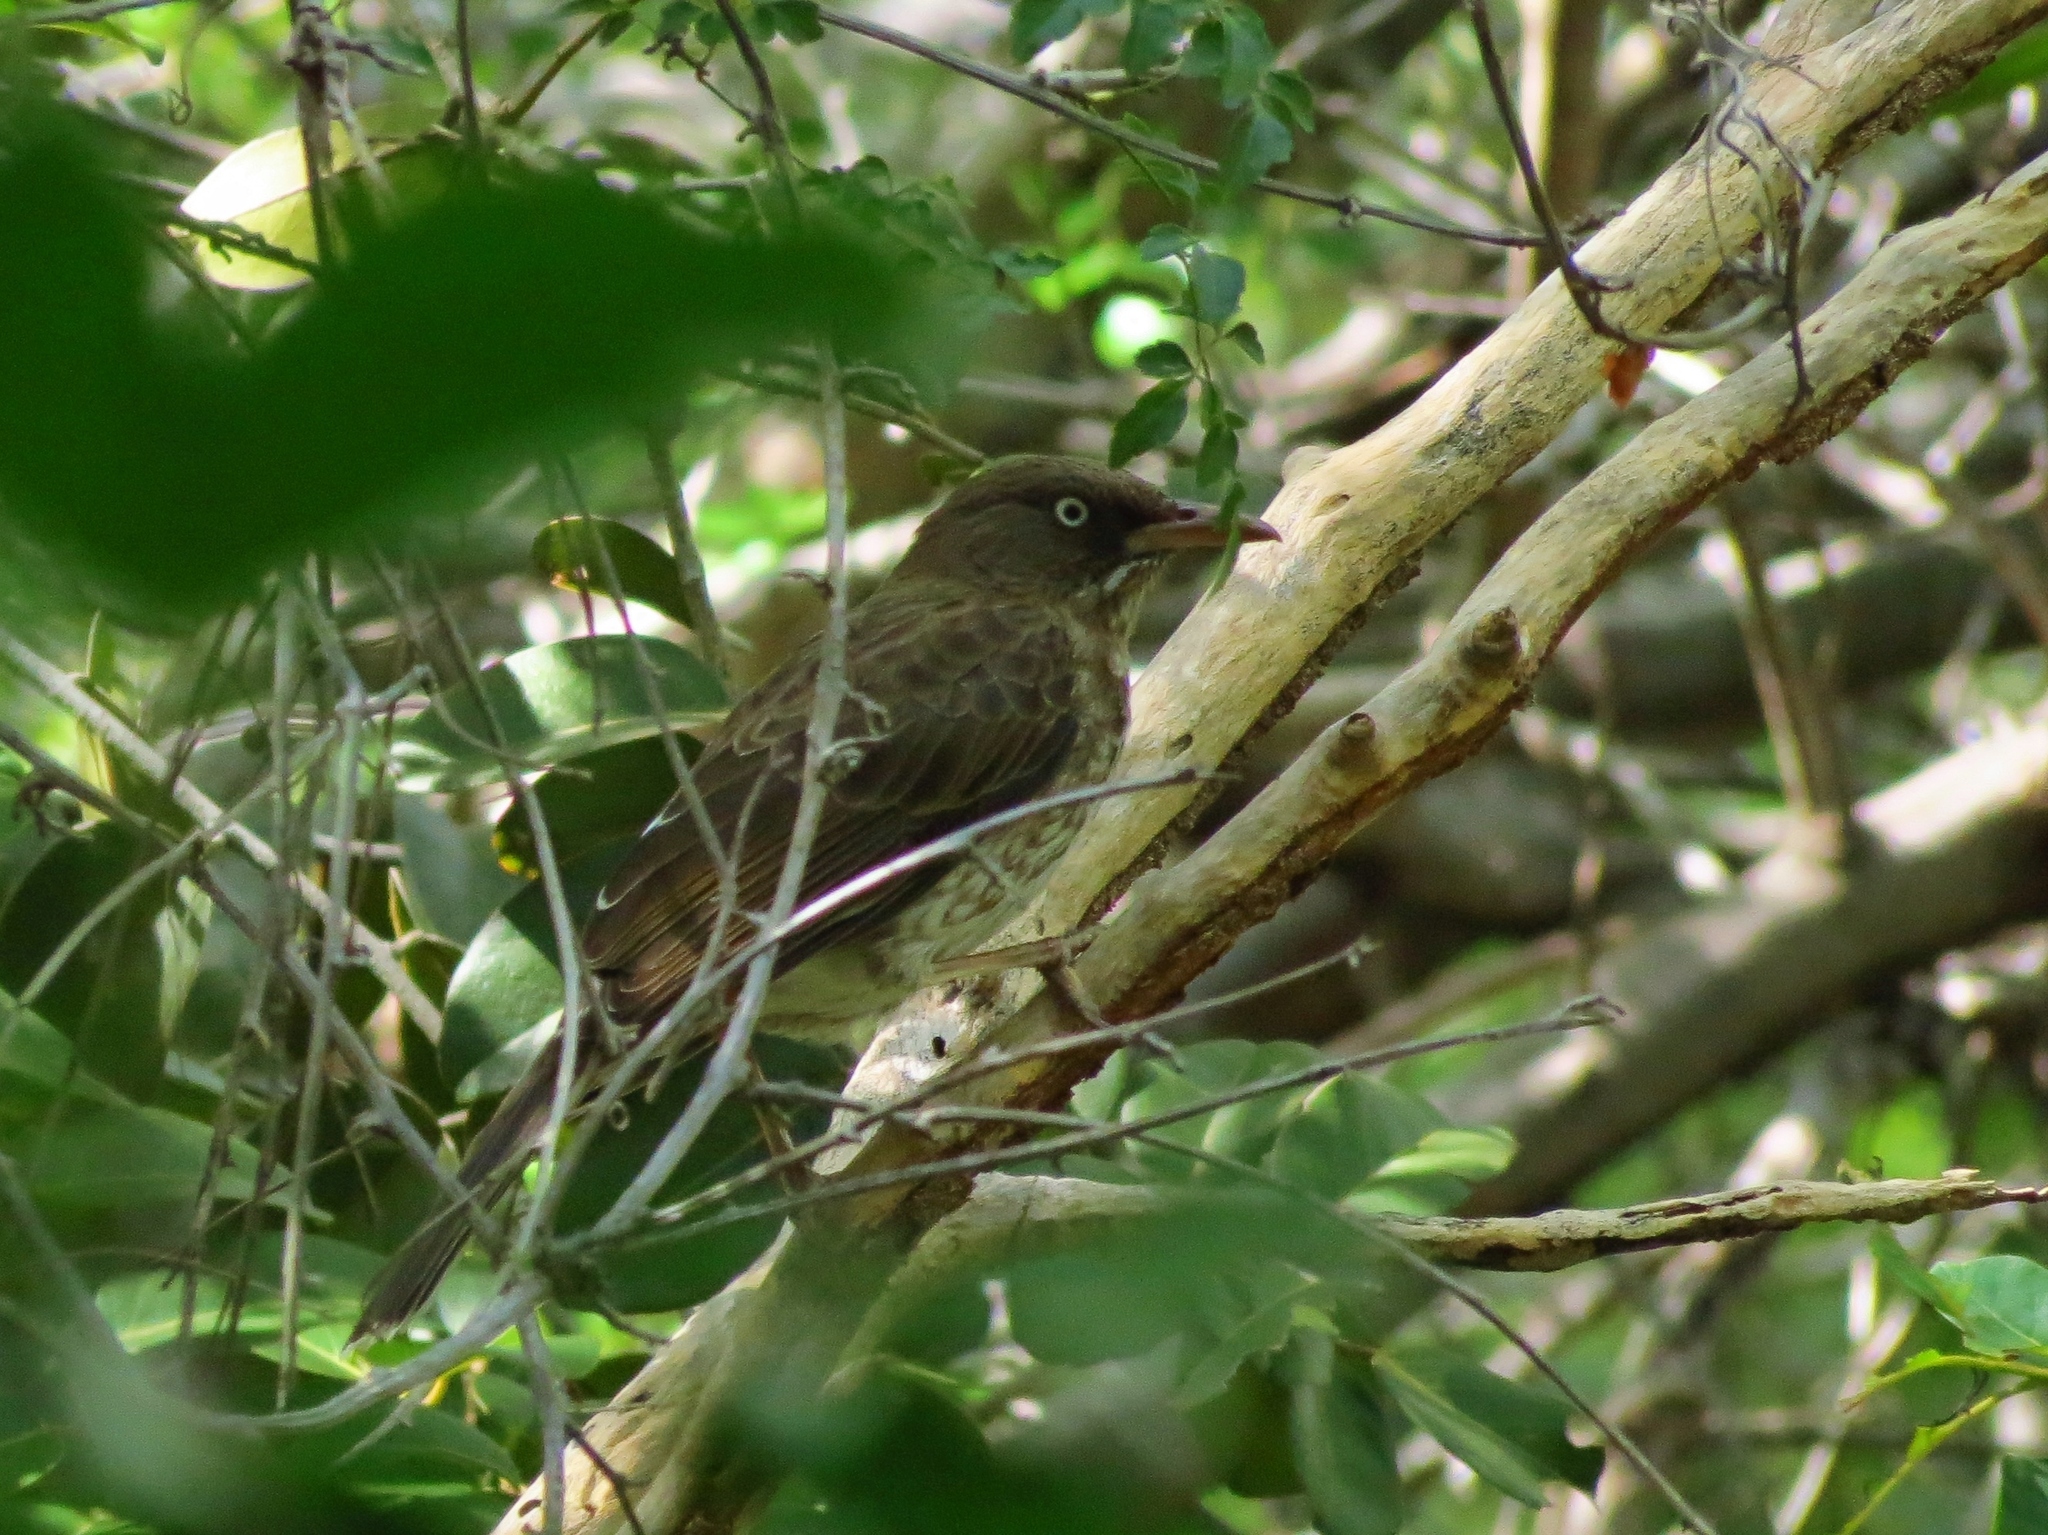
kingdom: Animalia
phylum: Chordata
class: Aves
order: Passeriformes
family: Mimidae
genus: Margarops
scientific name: Margarops fuscatus
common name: Pearly-eyed thrasher
